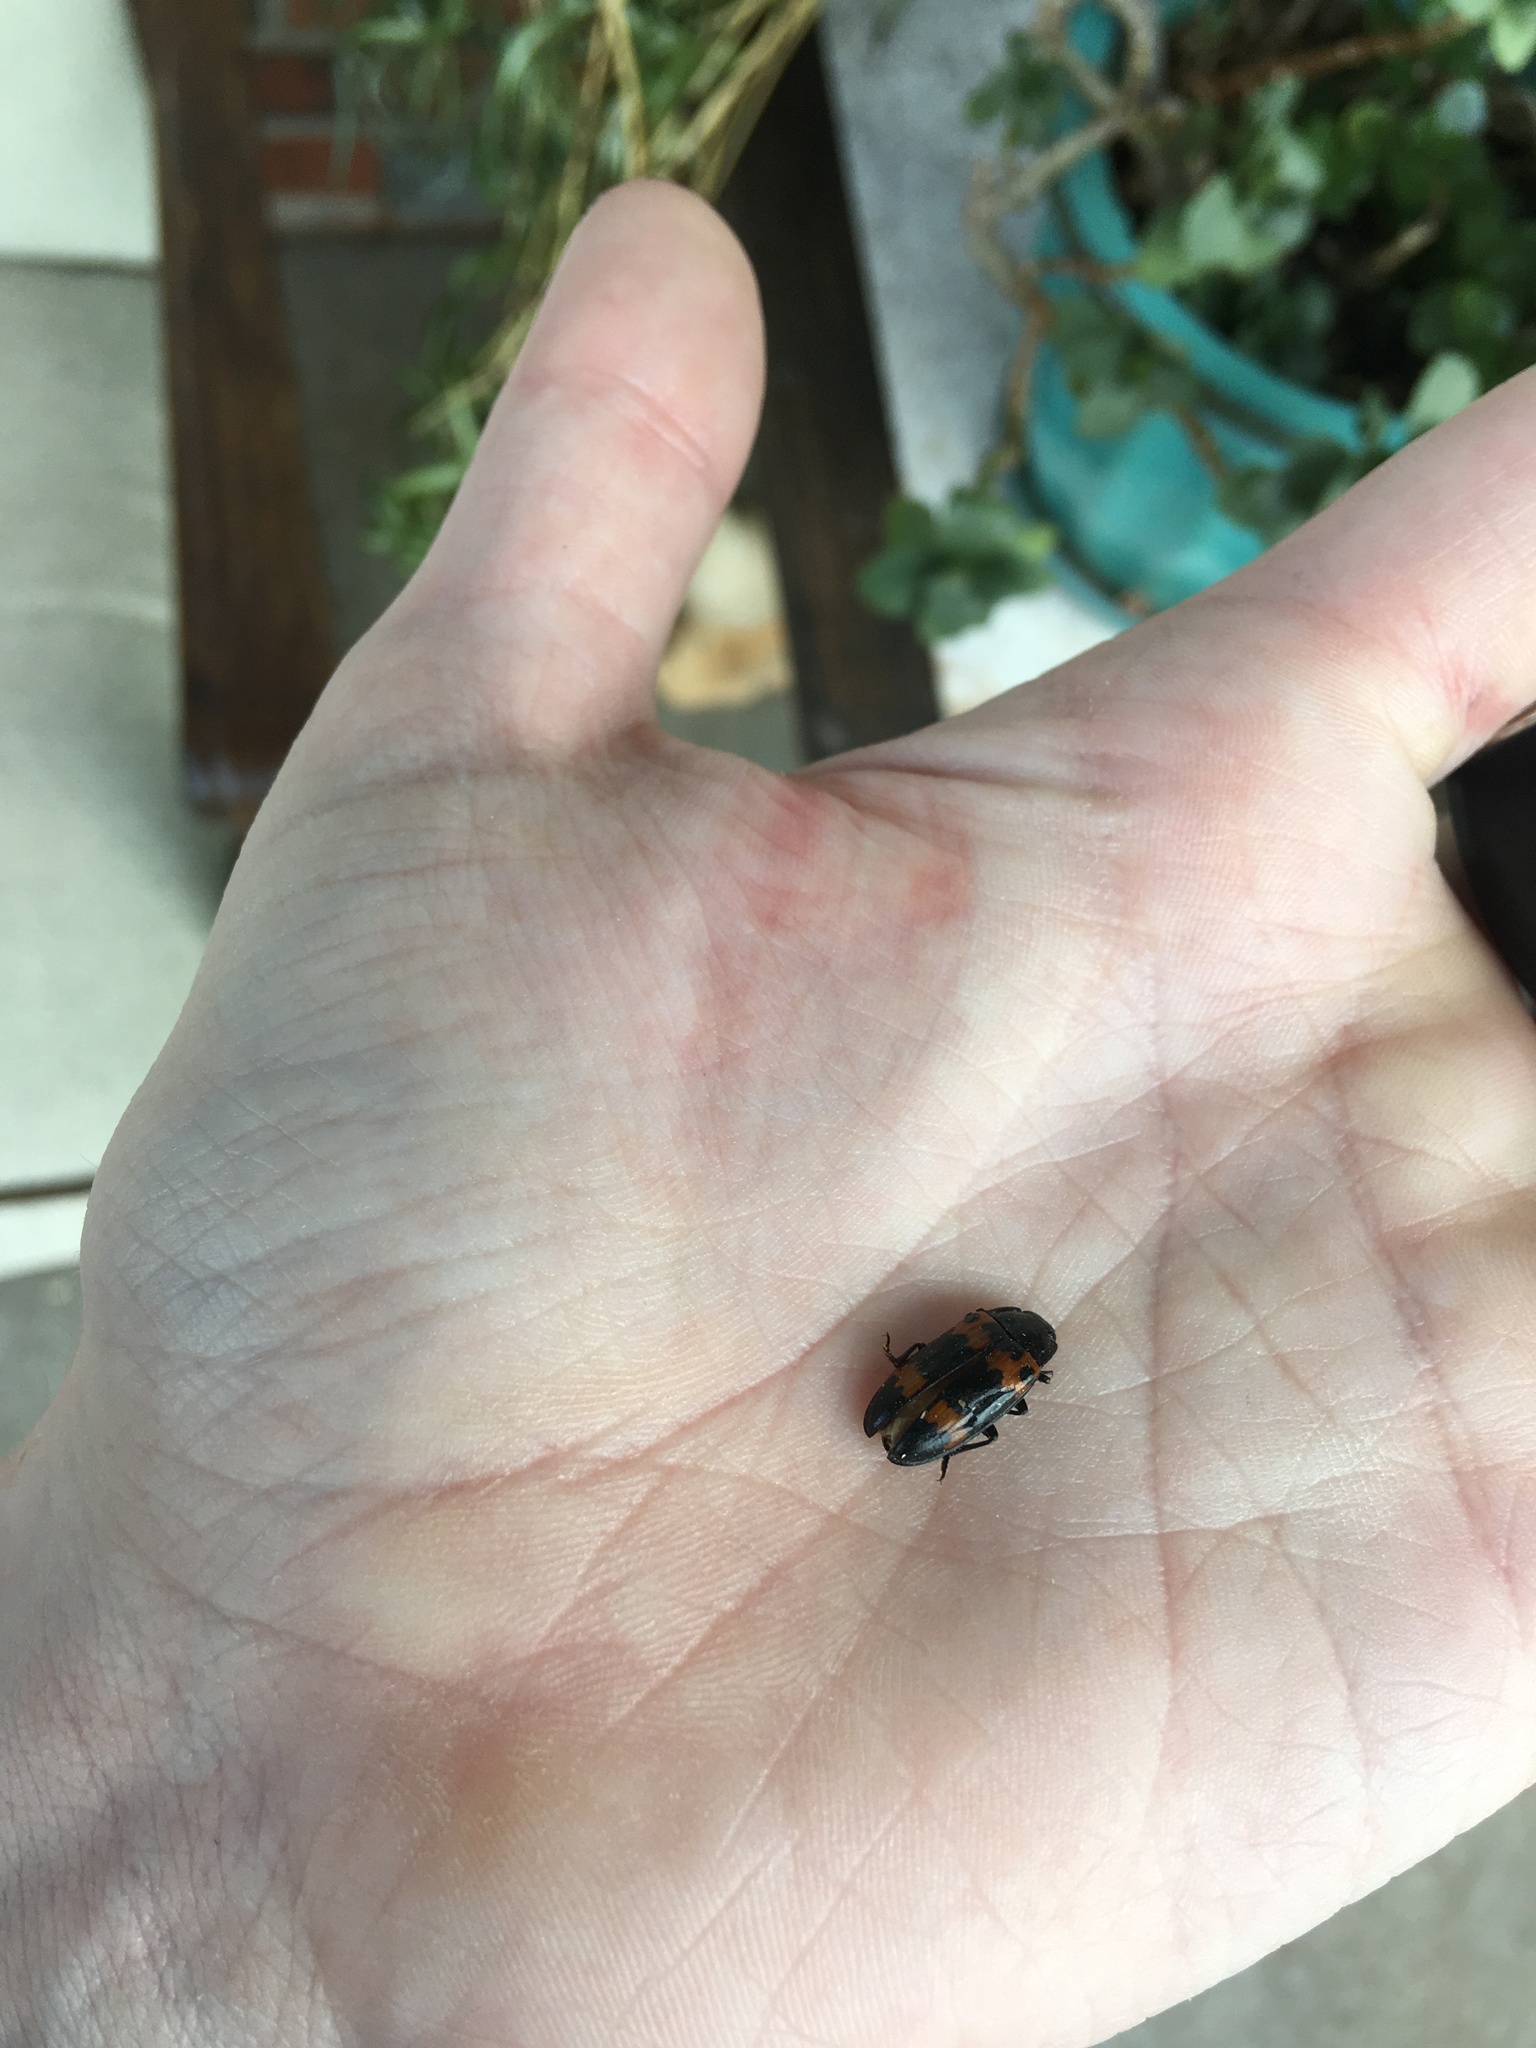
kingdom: Animalia
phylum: Arthropoda
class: Insecta
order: Coleoptera
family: Erotylidae
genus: Megalodacne
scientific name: Megalodacne fasciata
